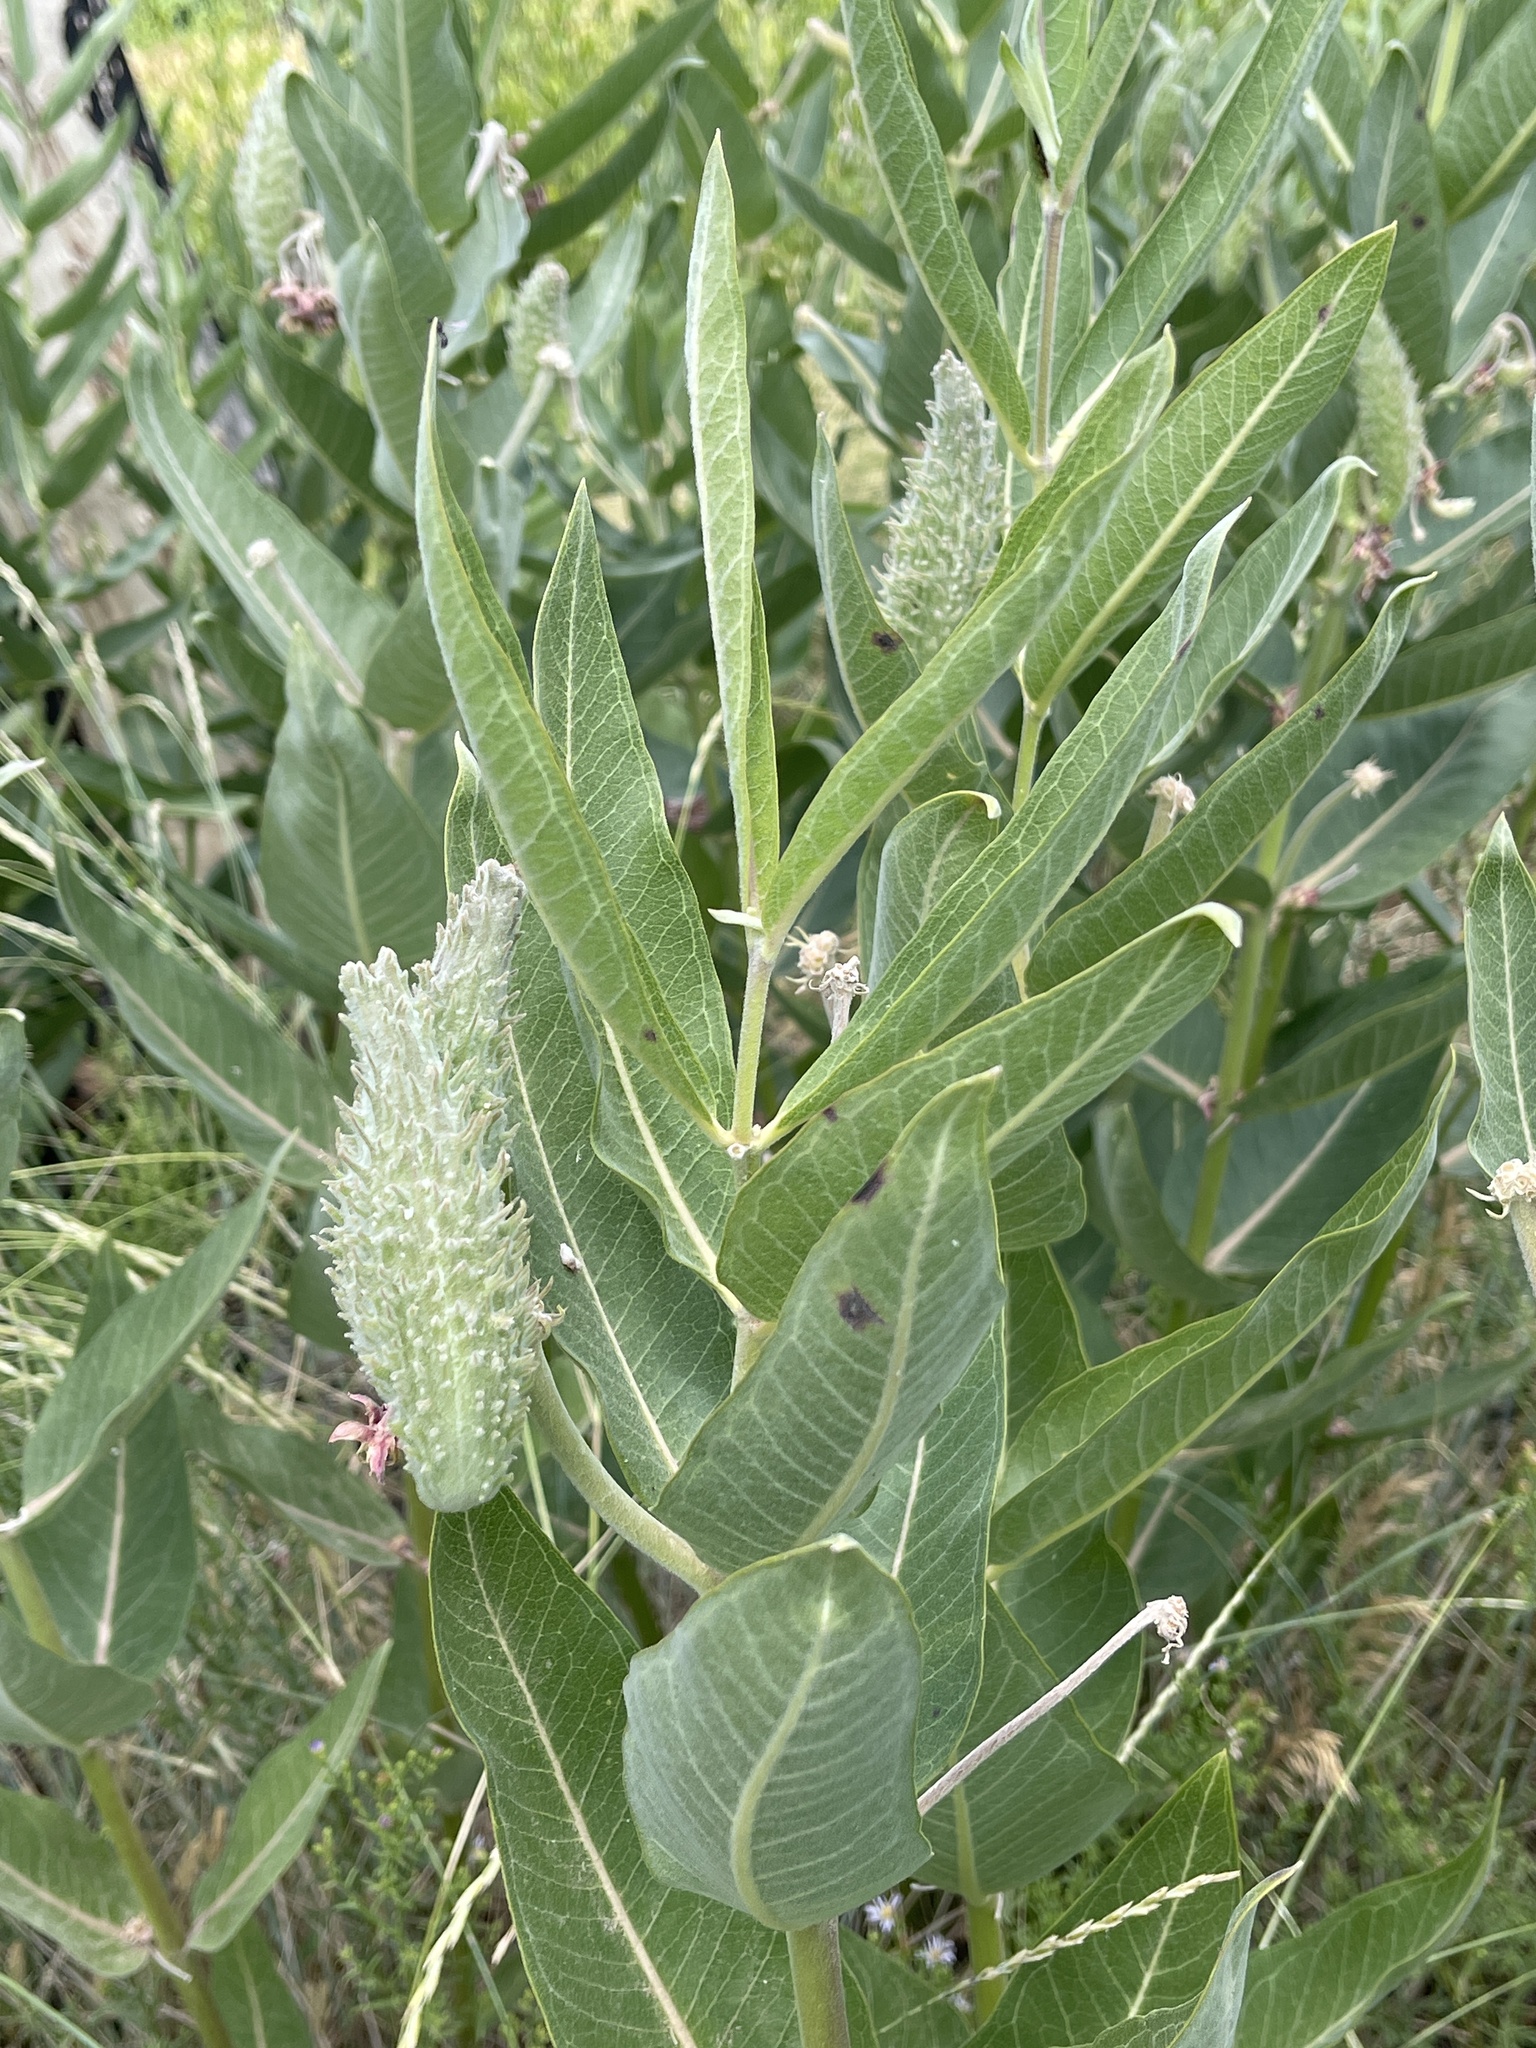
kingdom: Plantae
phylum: Tracheophyta
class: Magnoliopsida
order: Gentianales
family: Apocynaceae
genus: Asclepias
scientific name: Asclepias speciosa
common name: Showy milkweed
